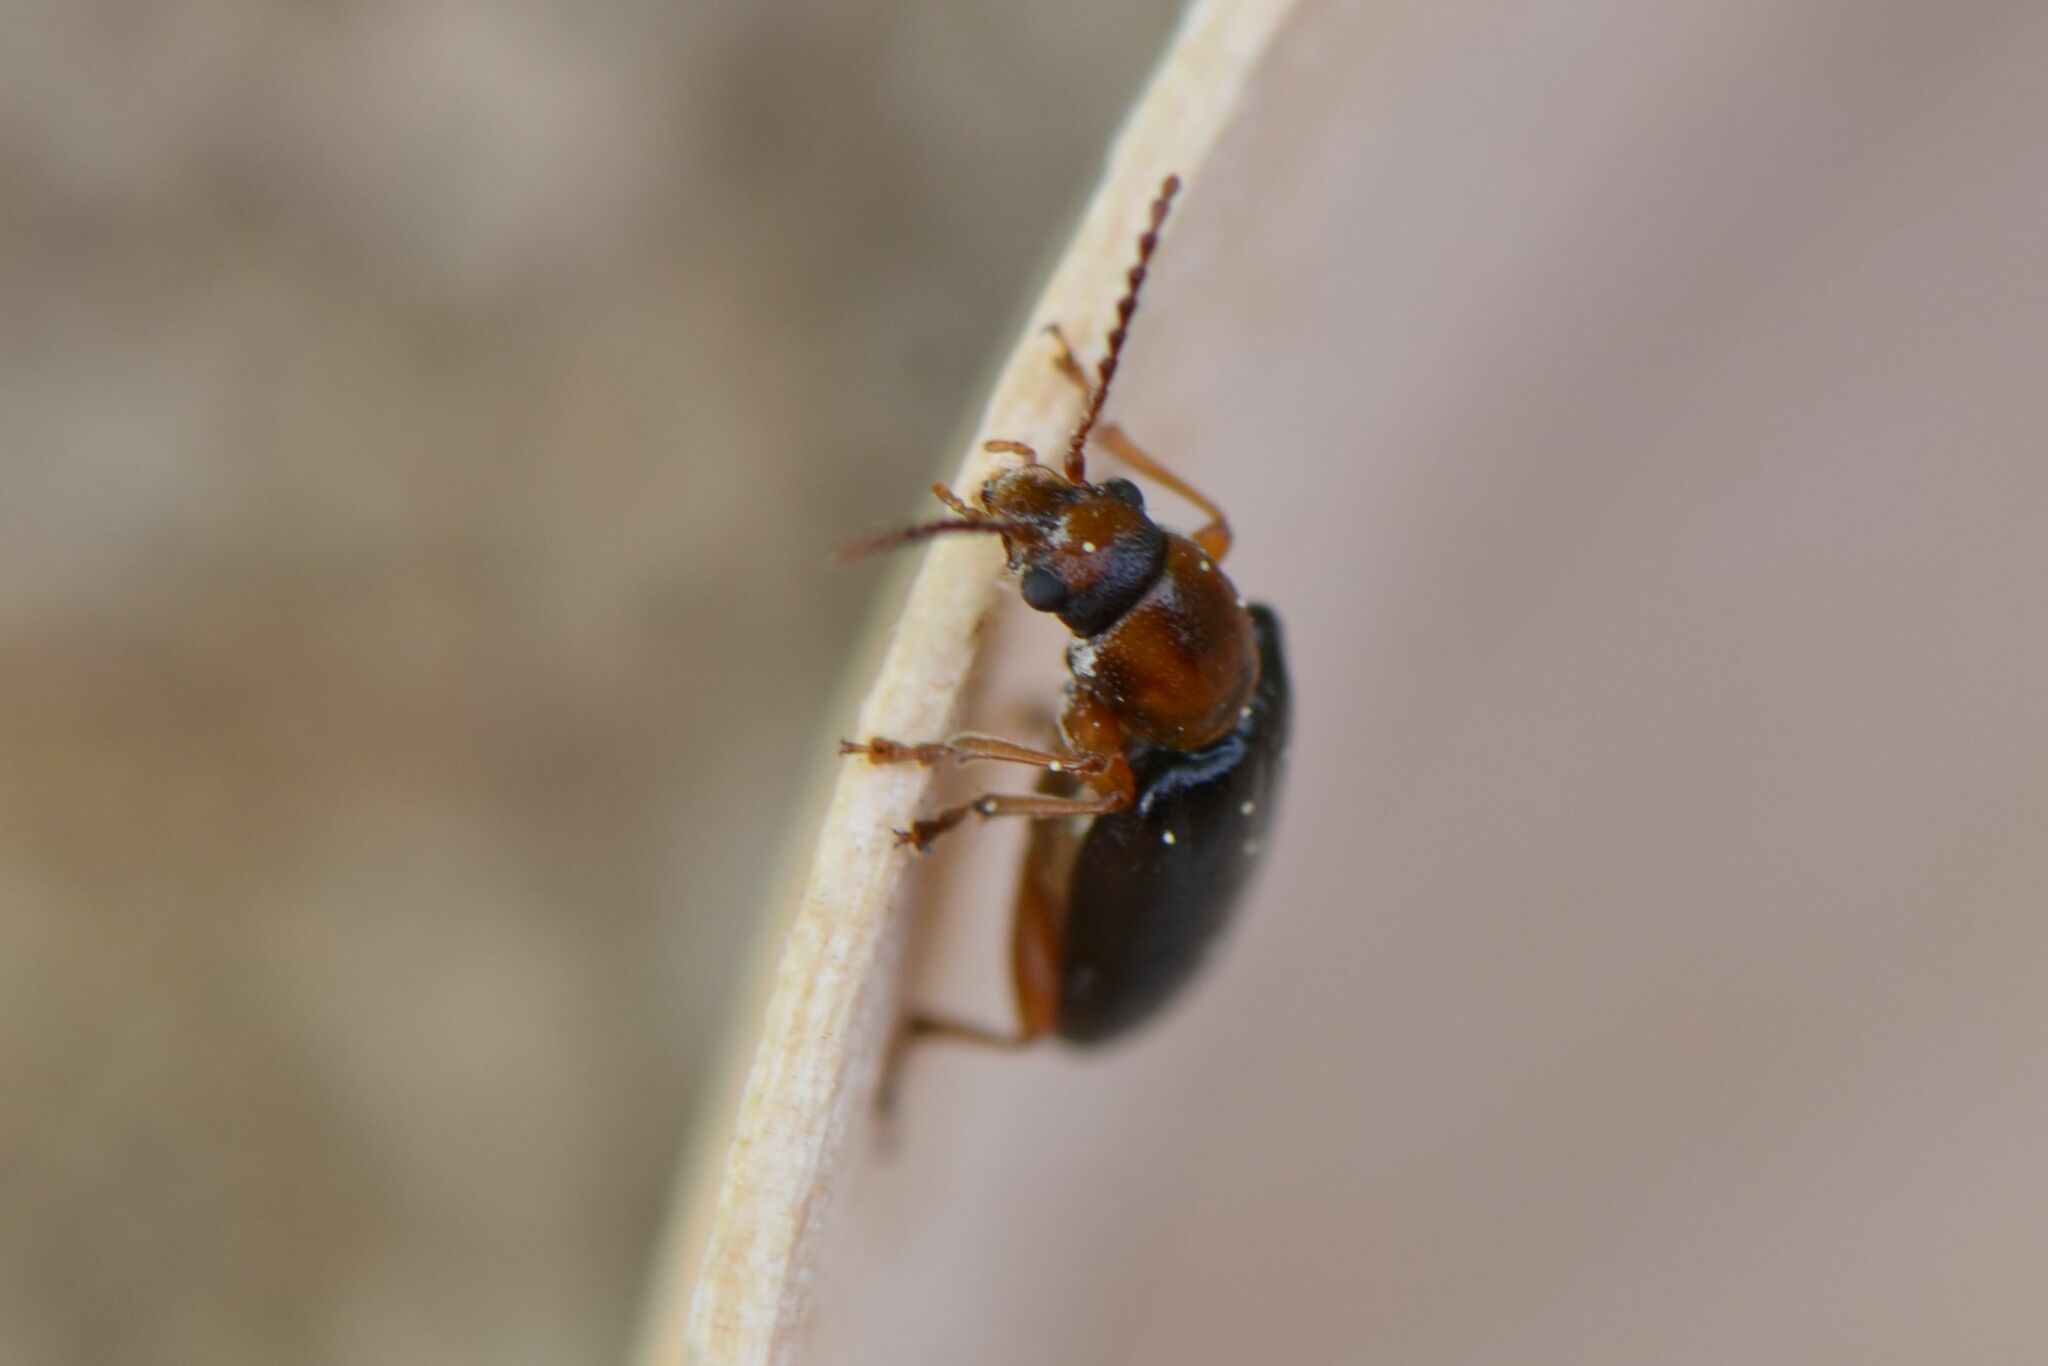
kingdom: Animalia
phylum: Arthropoda
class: Insecta
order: Coleoptera
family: Orsodacnidae
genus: Orsodacne
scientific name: Orsodacne cerasi
